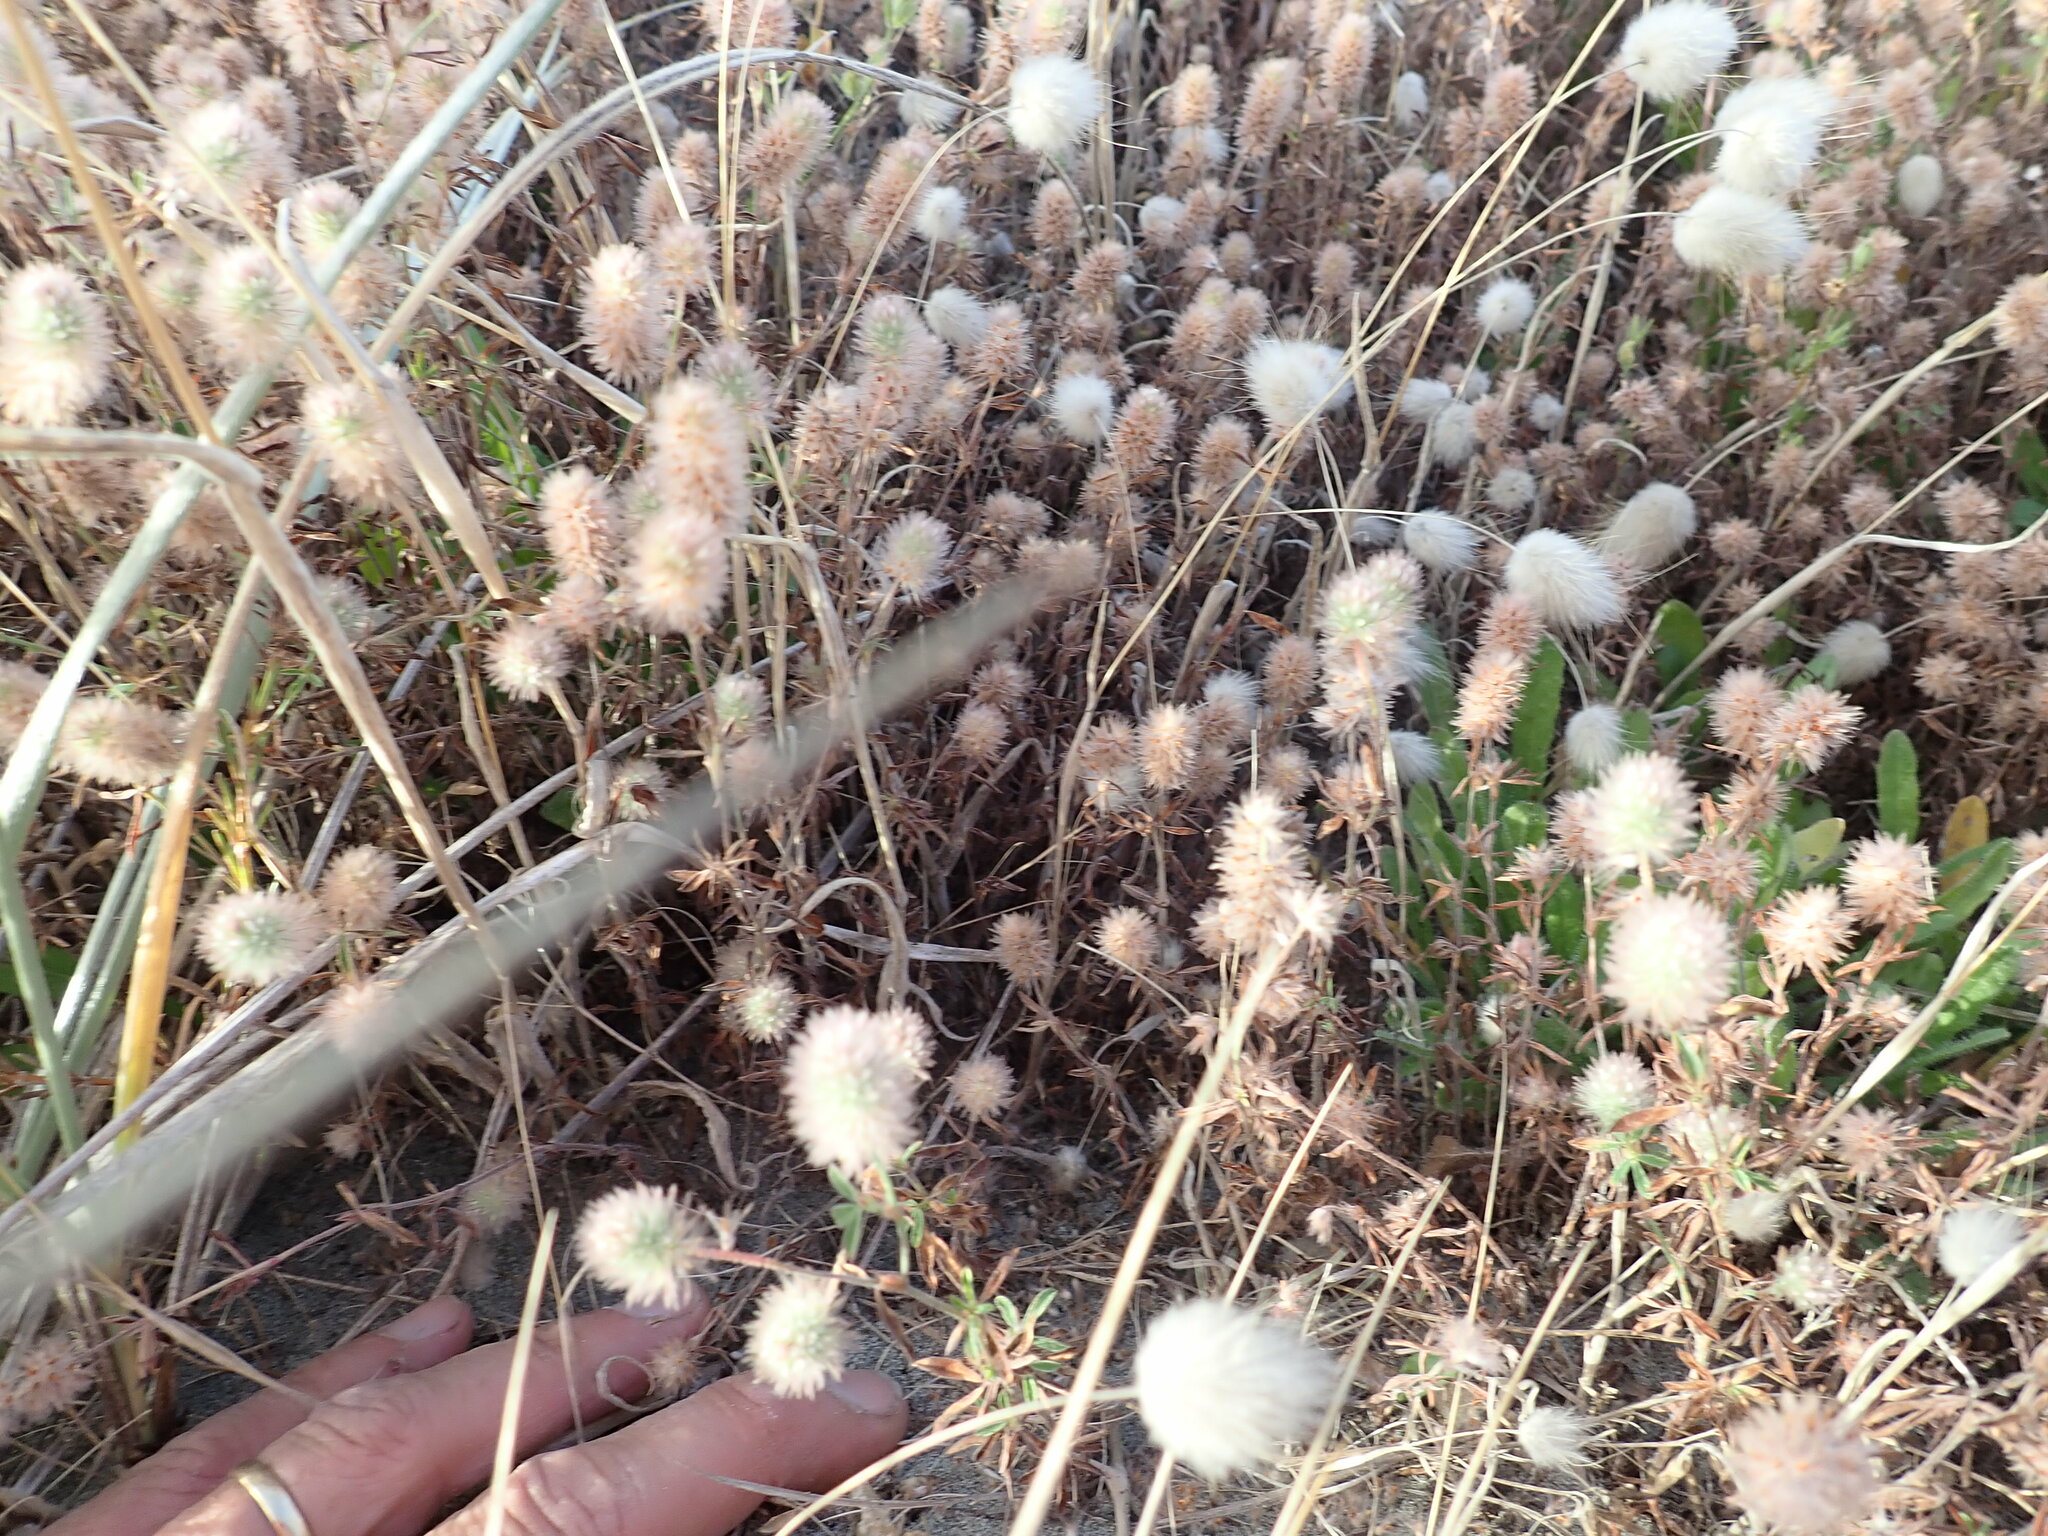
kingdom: Plantae
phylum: Tracheophyta
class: Magnoliopsida
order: Fabales
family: Fabaceae
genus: Trifolium
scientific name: Trifolium arvense
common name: Hare's-foot clover
